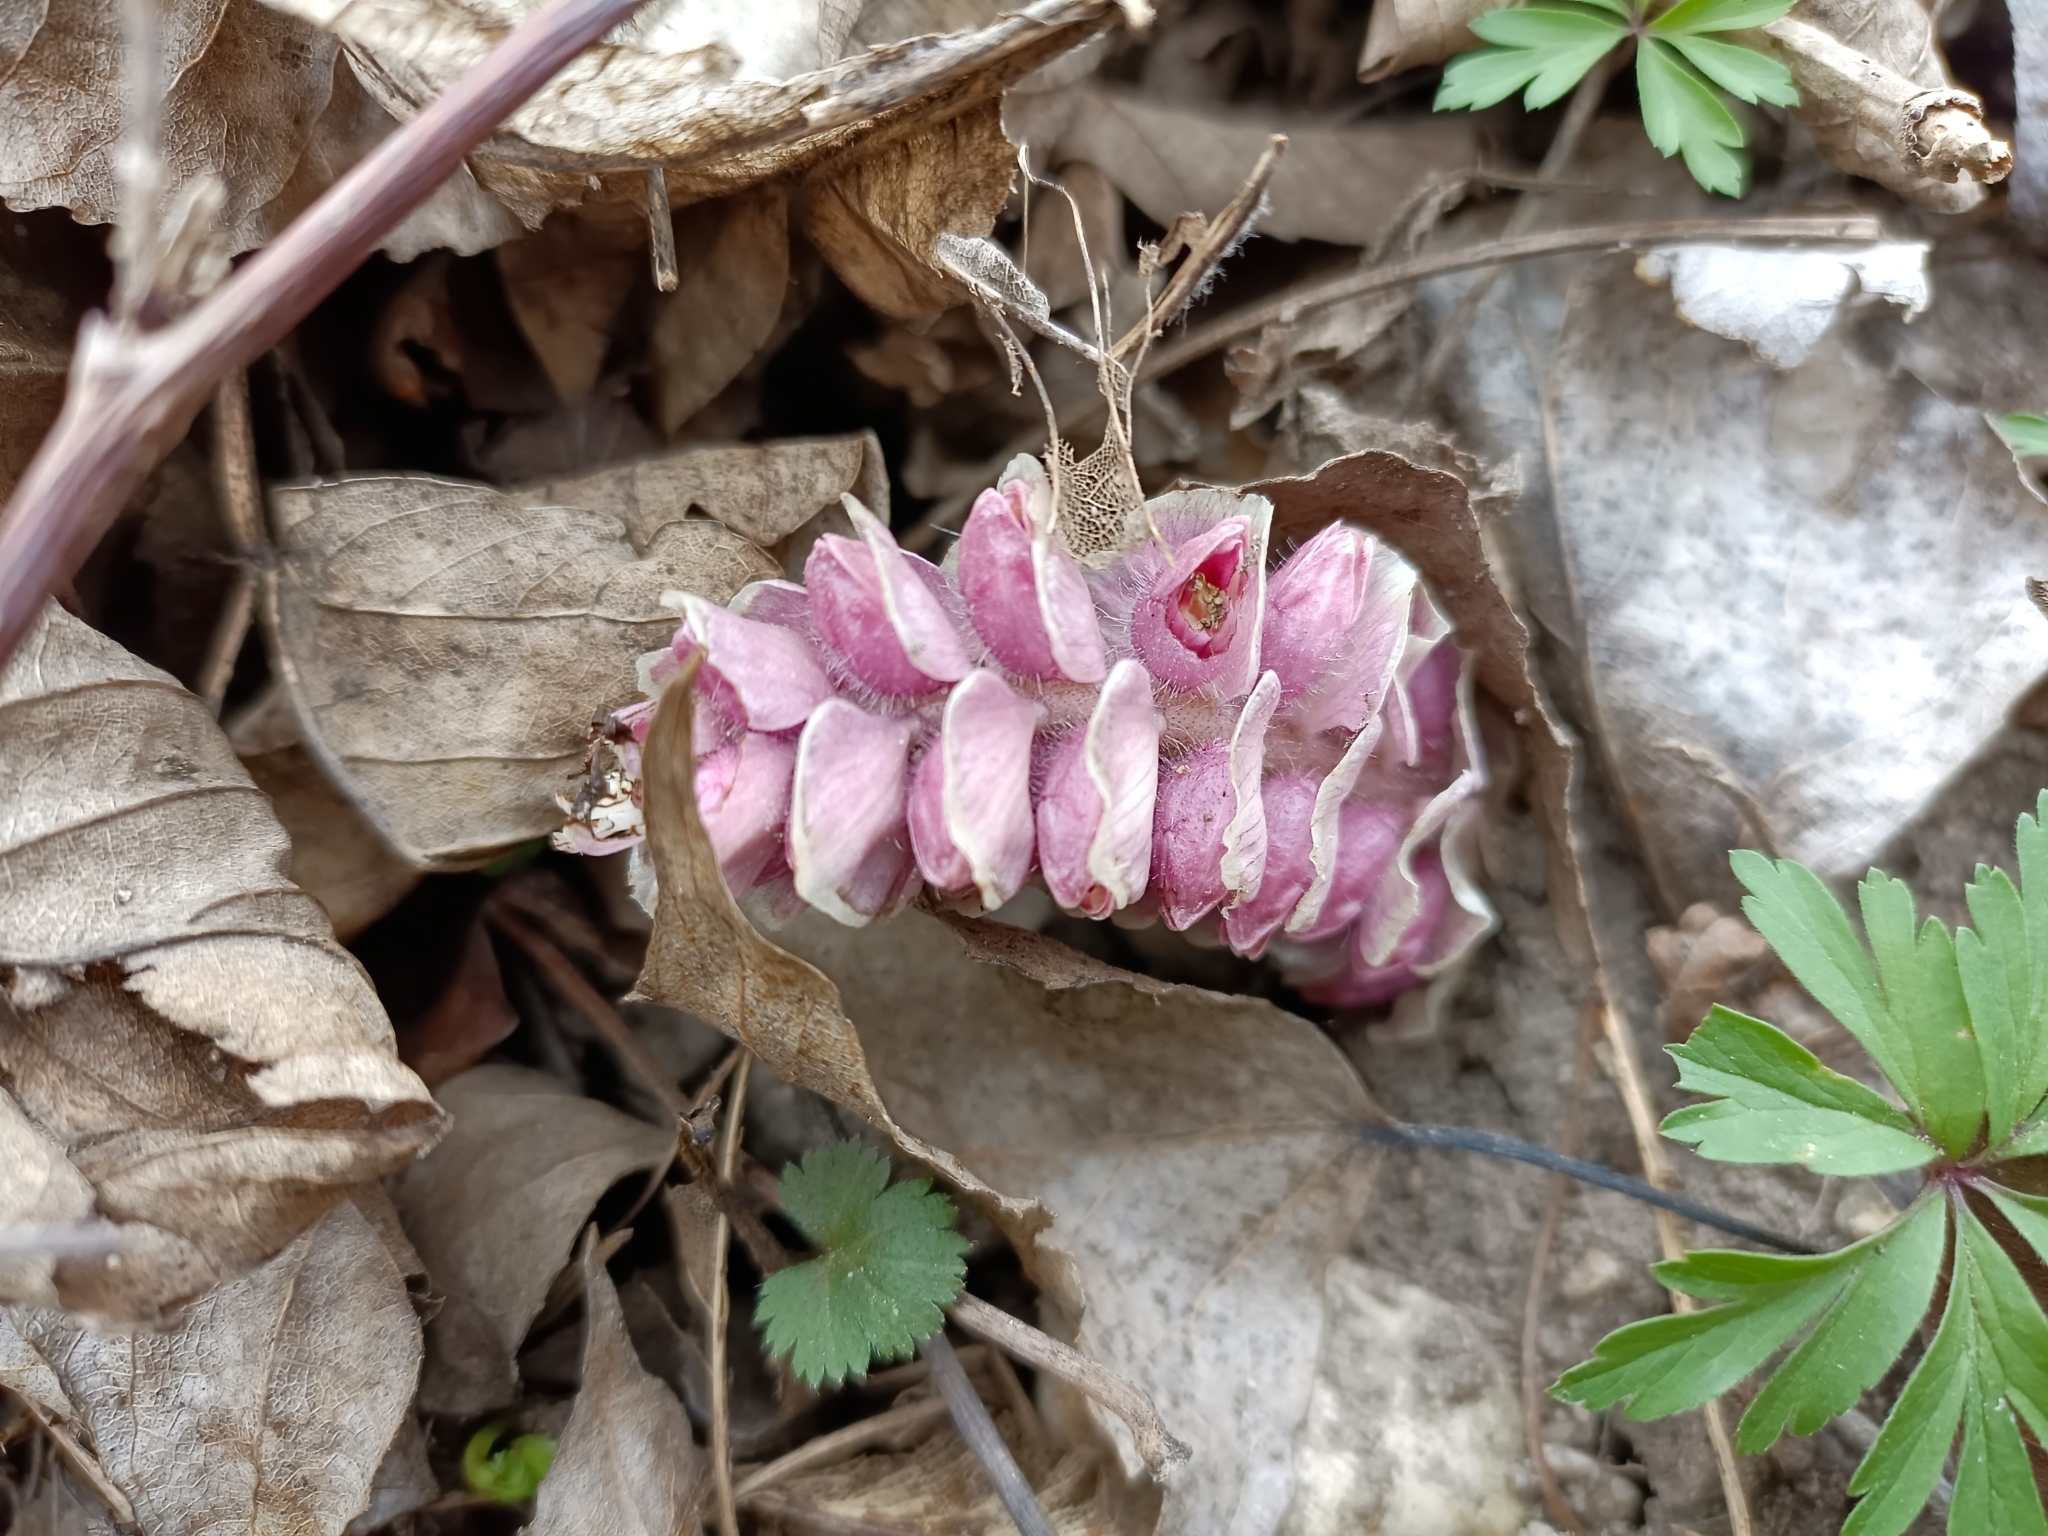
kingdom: Plantae
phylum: Tracheophyta
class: Magnoliopsida
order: Lamiales
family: Orobanchaceae
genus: Lathraea
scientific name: Lathraea squamaria
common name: Toothwort
